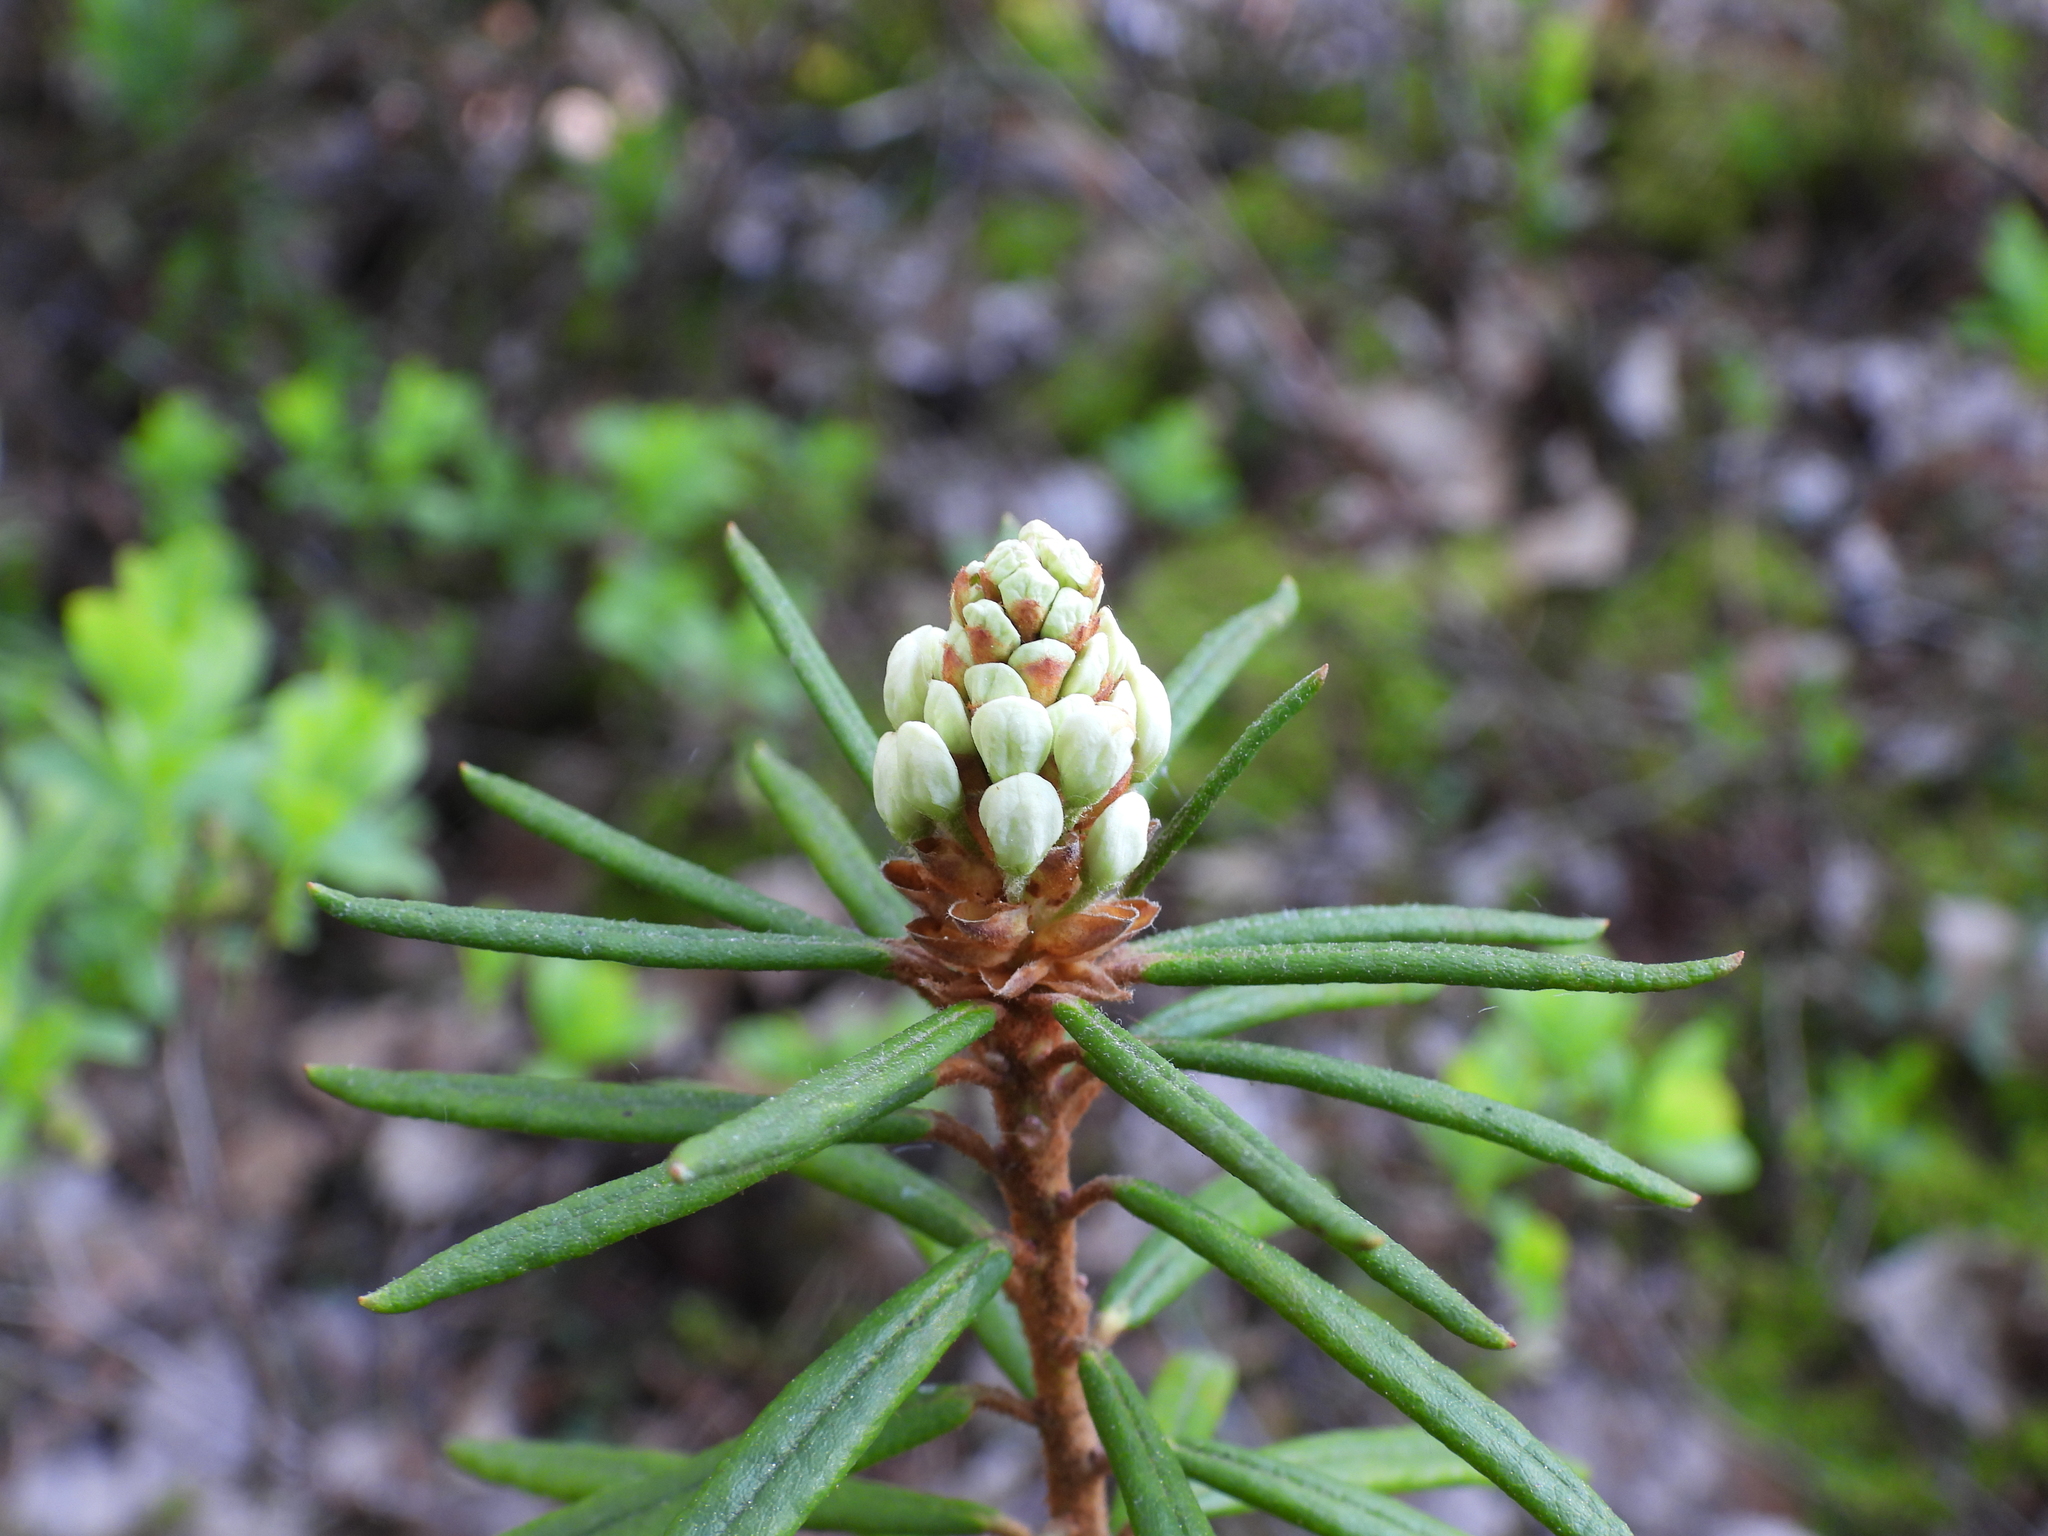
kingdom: Plantae
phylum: Tracheophyta
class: Magnoliopsida
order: Ericales
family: Ericaceae
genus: Rhododendron
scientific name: Rhododendron tomentosum
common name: Marsh labrador tea
